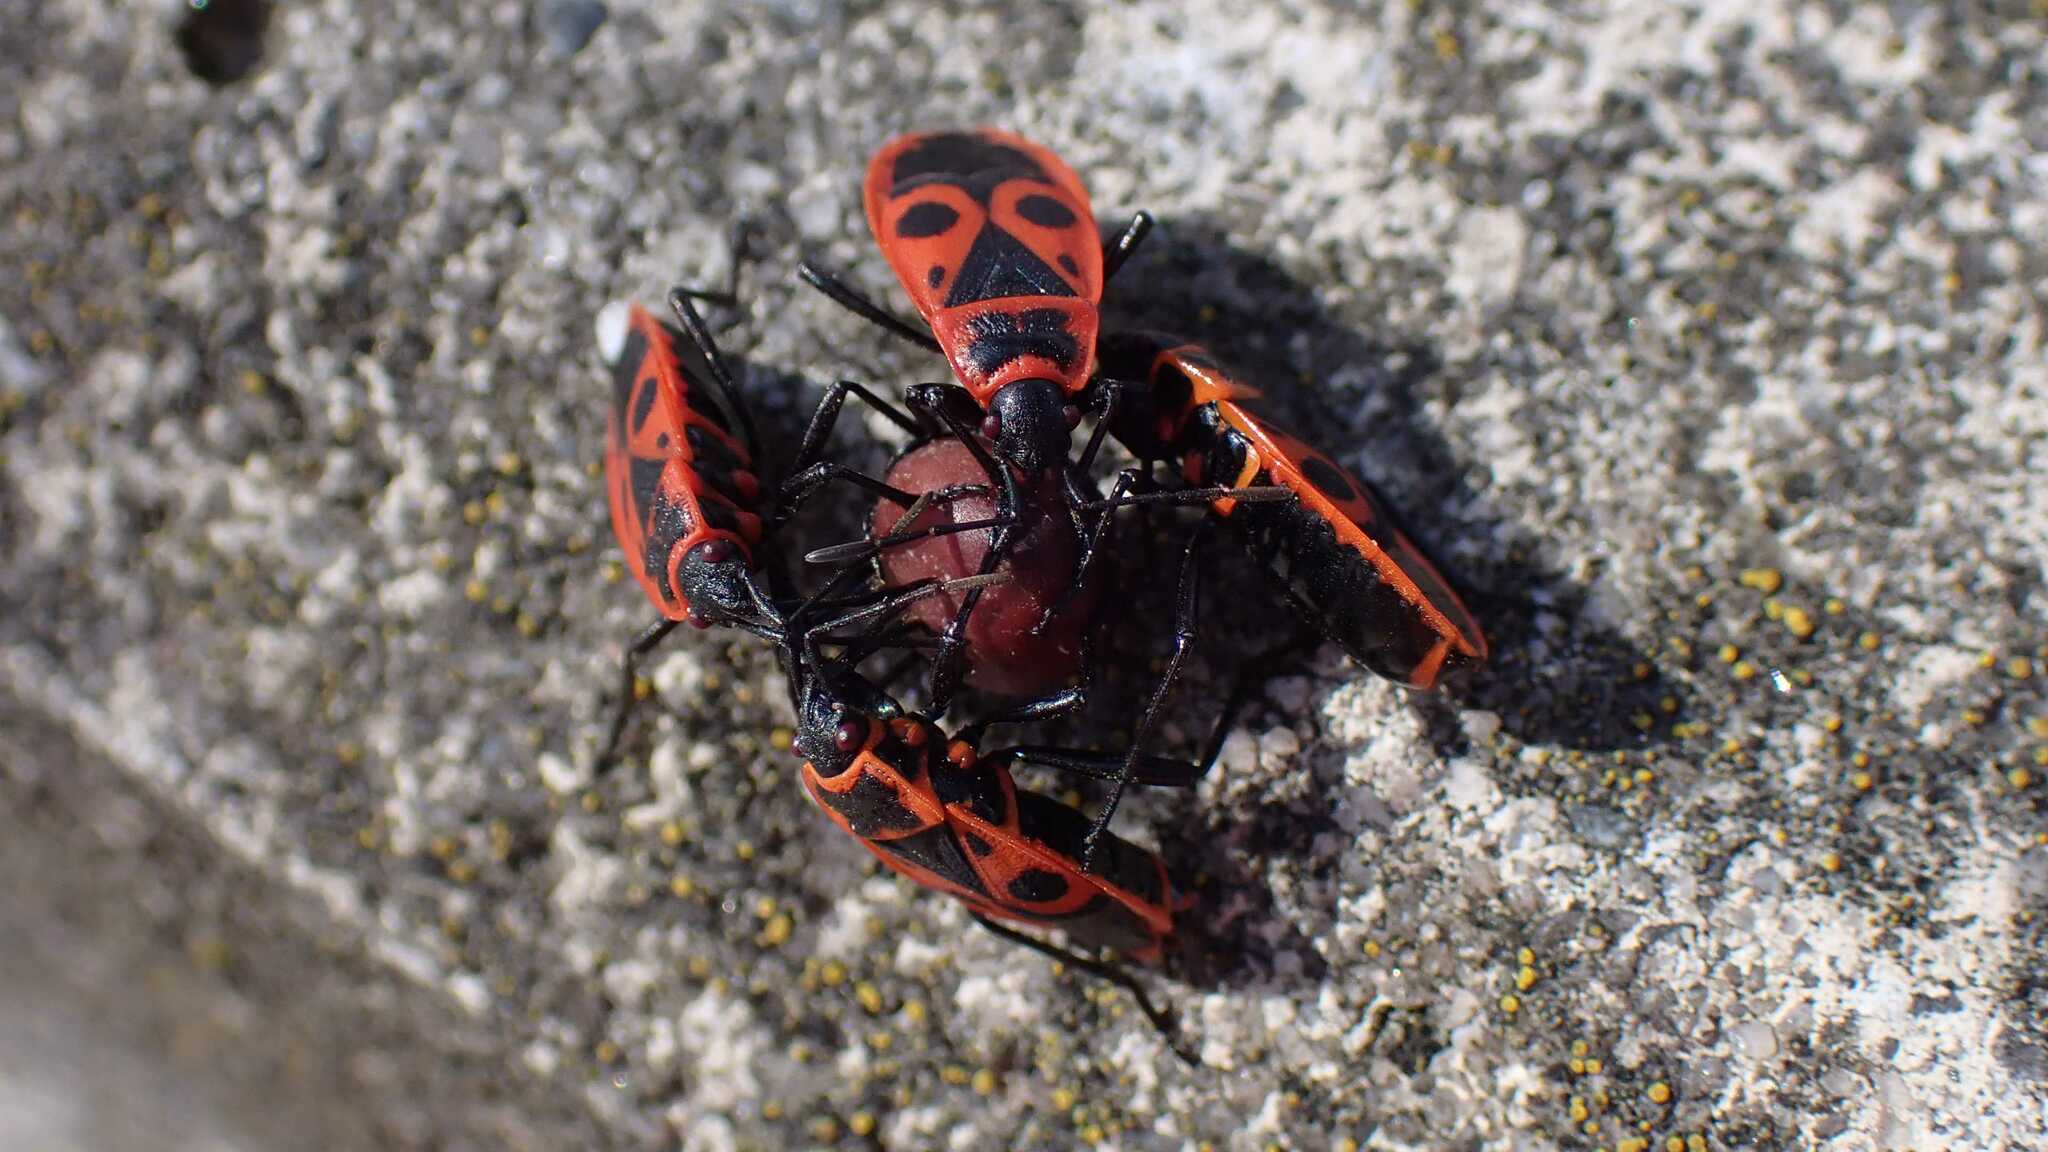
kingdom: Animalia
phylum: Arthropoda
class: Insecta
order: Hemiptera
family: Pyrrhocoridae
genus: Pyrrhocoris
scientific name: Pyrrhocoris apterus
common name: Firebug
